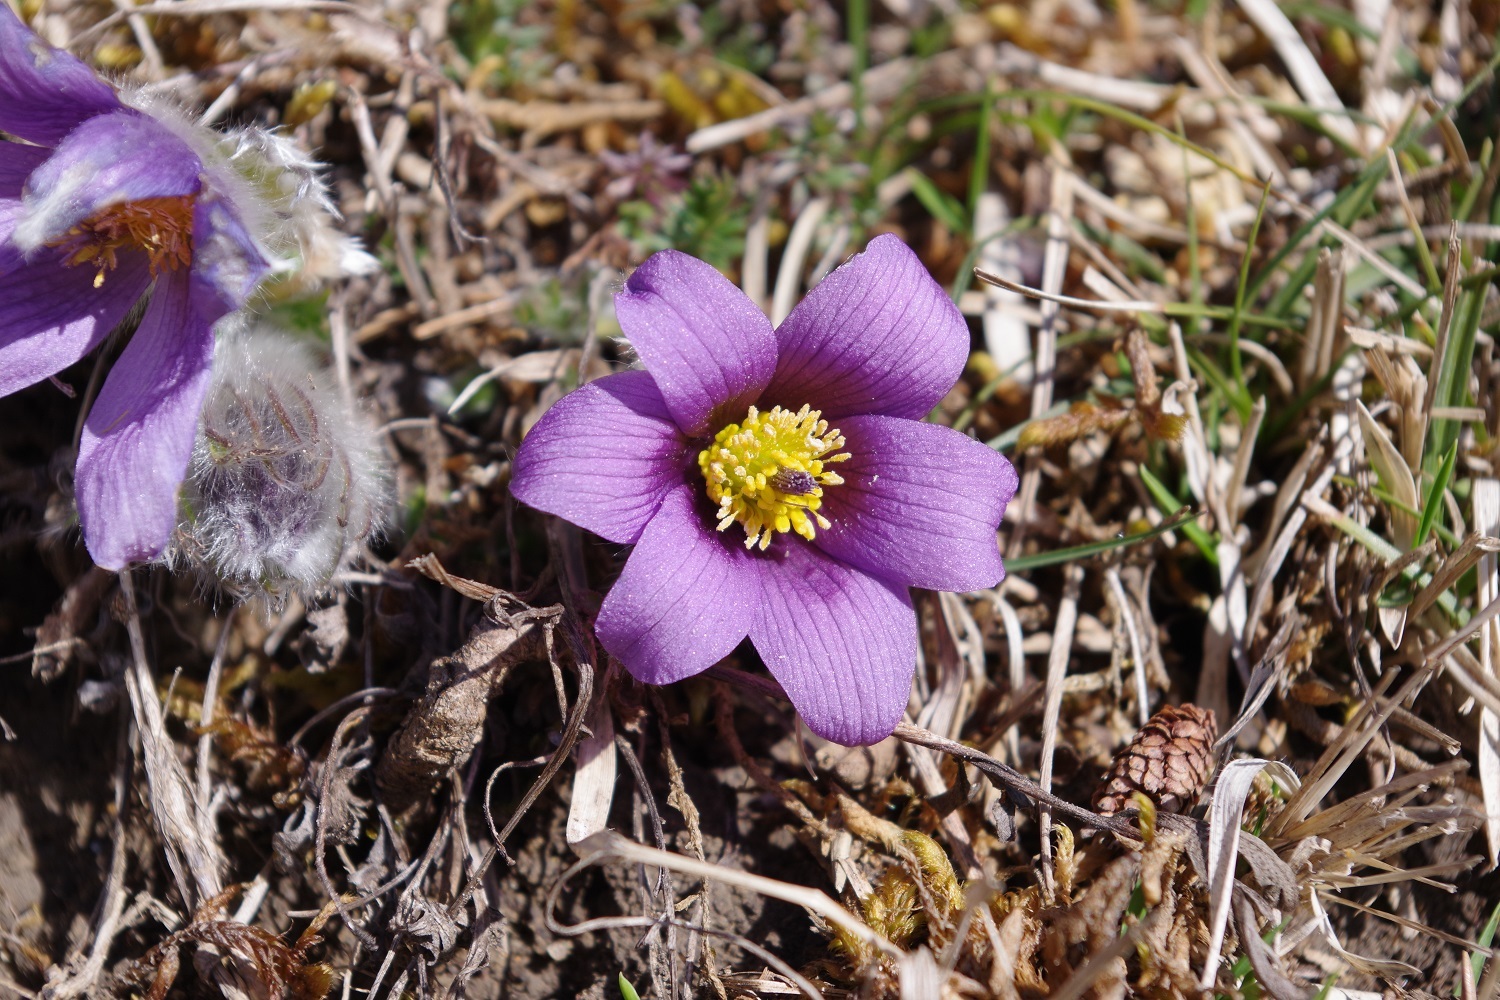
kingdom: Plantae
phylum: Tracheophyta
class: Magnoliopsida
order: Ranunculales
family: Ranunculaceae
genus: Pulsatilla
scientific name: Pulsatilla vulgaris
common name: Pasqueflower
